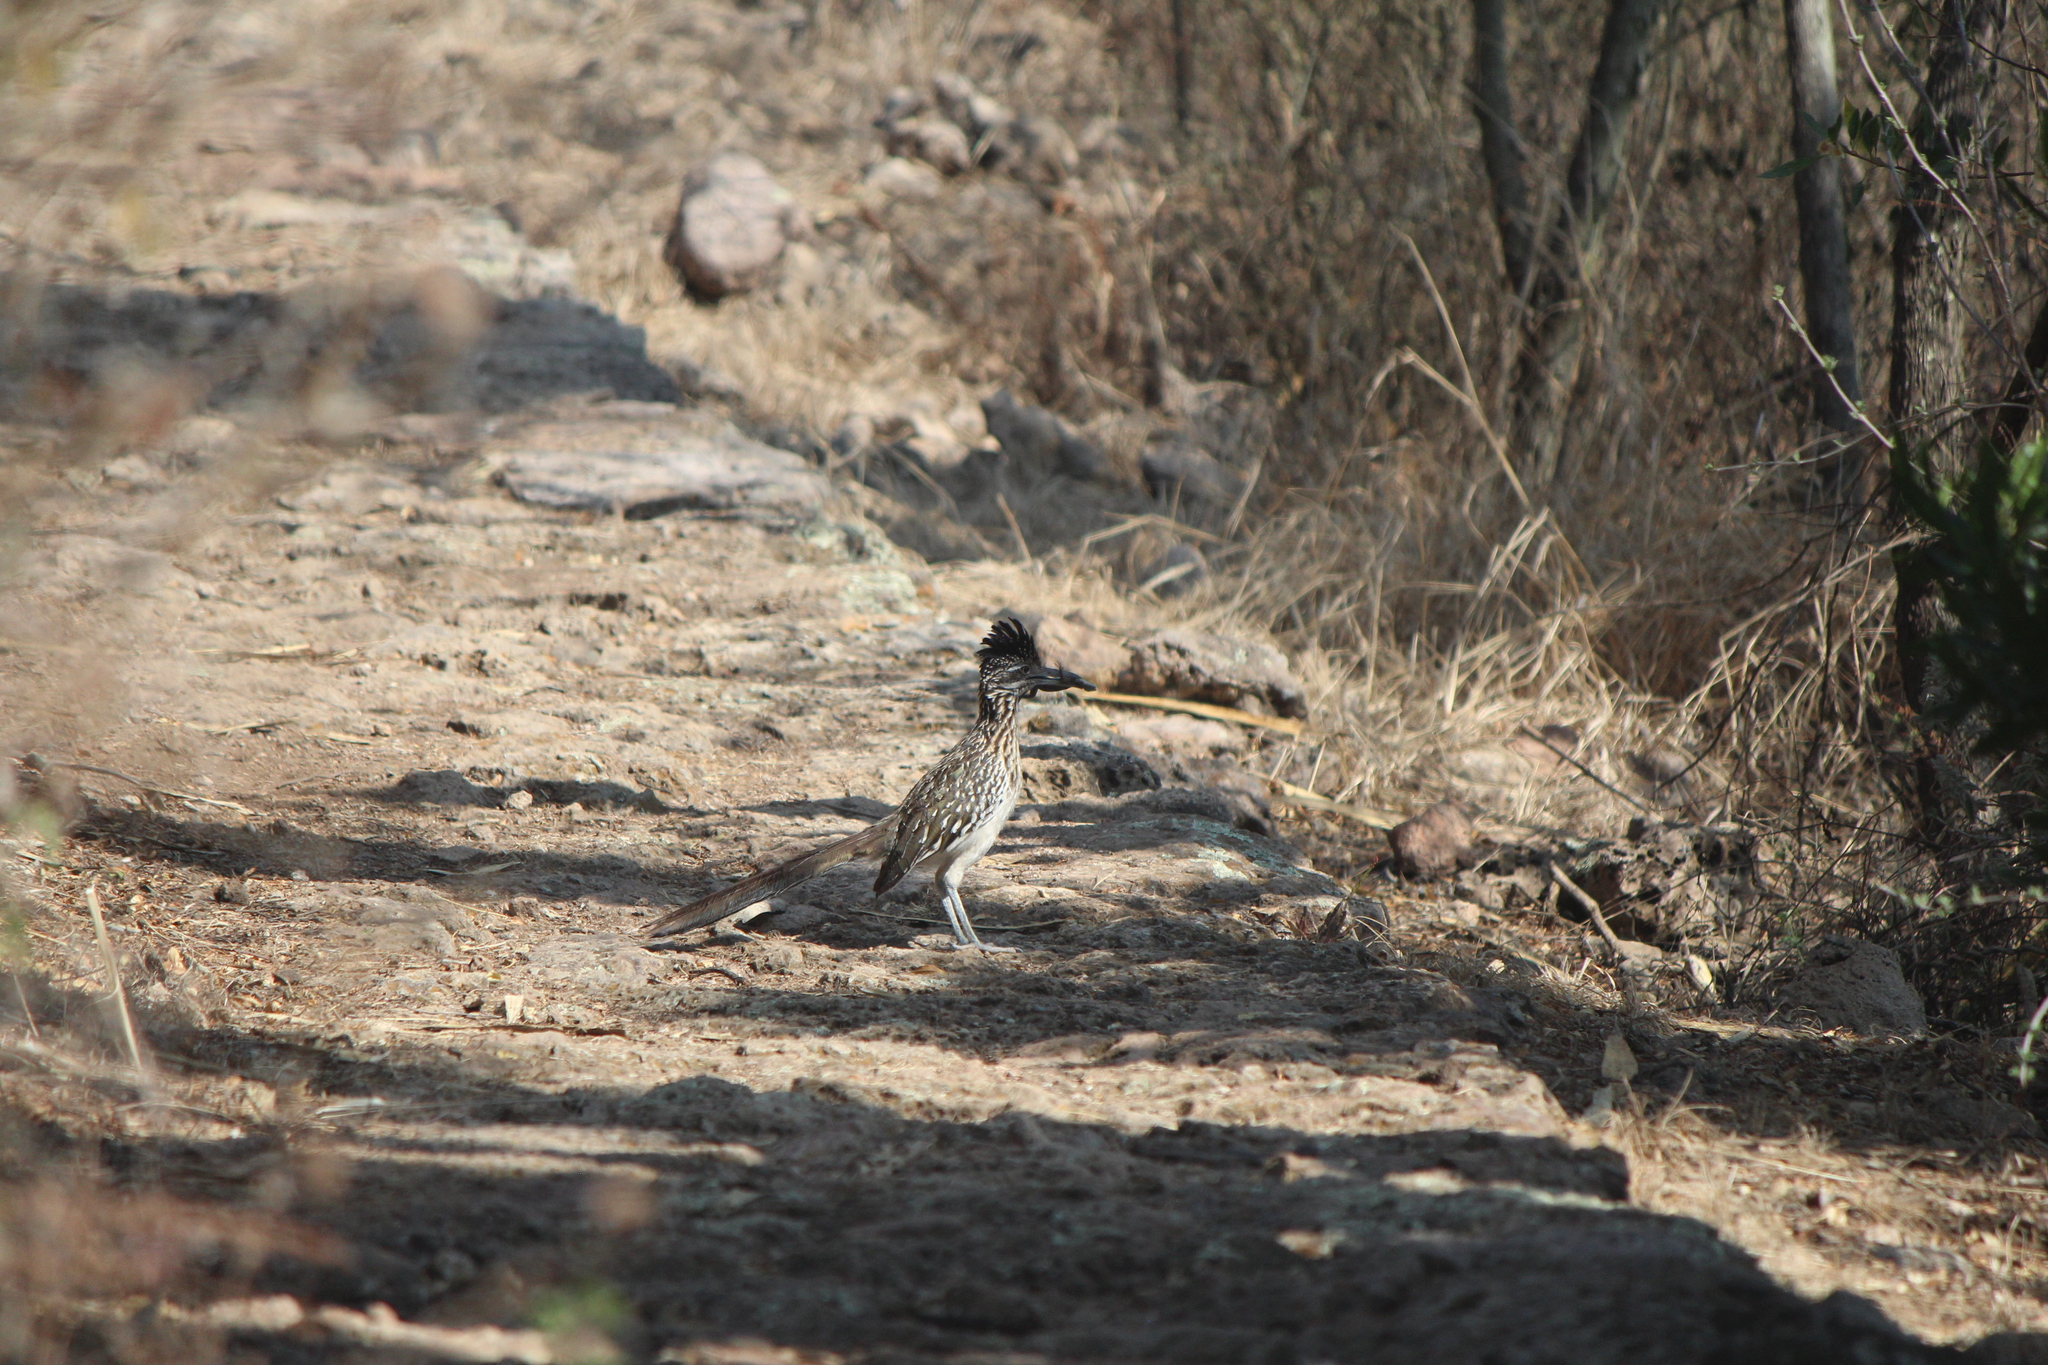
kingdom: Animalia
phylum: Chordata
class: Aves
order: Cuculiformes
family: Cuculidae
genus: Geococcyx
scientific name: Geococcyx californianus
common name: Greater roadrunner
